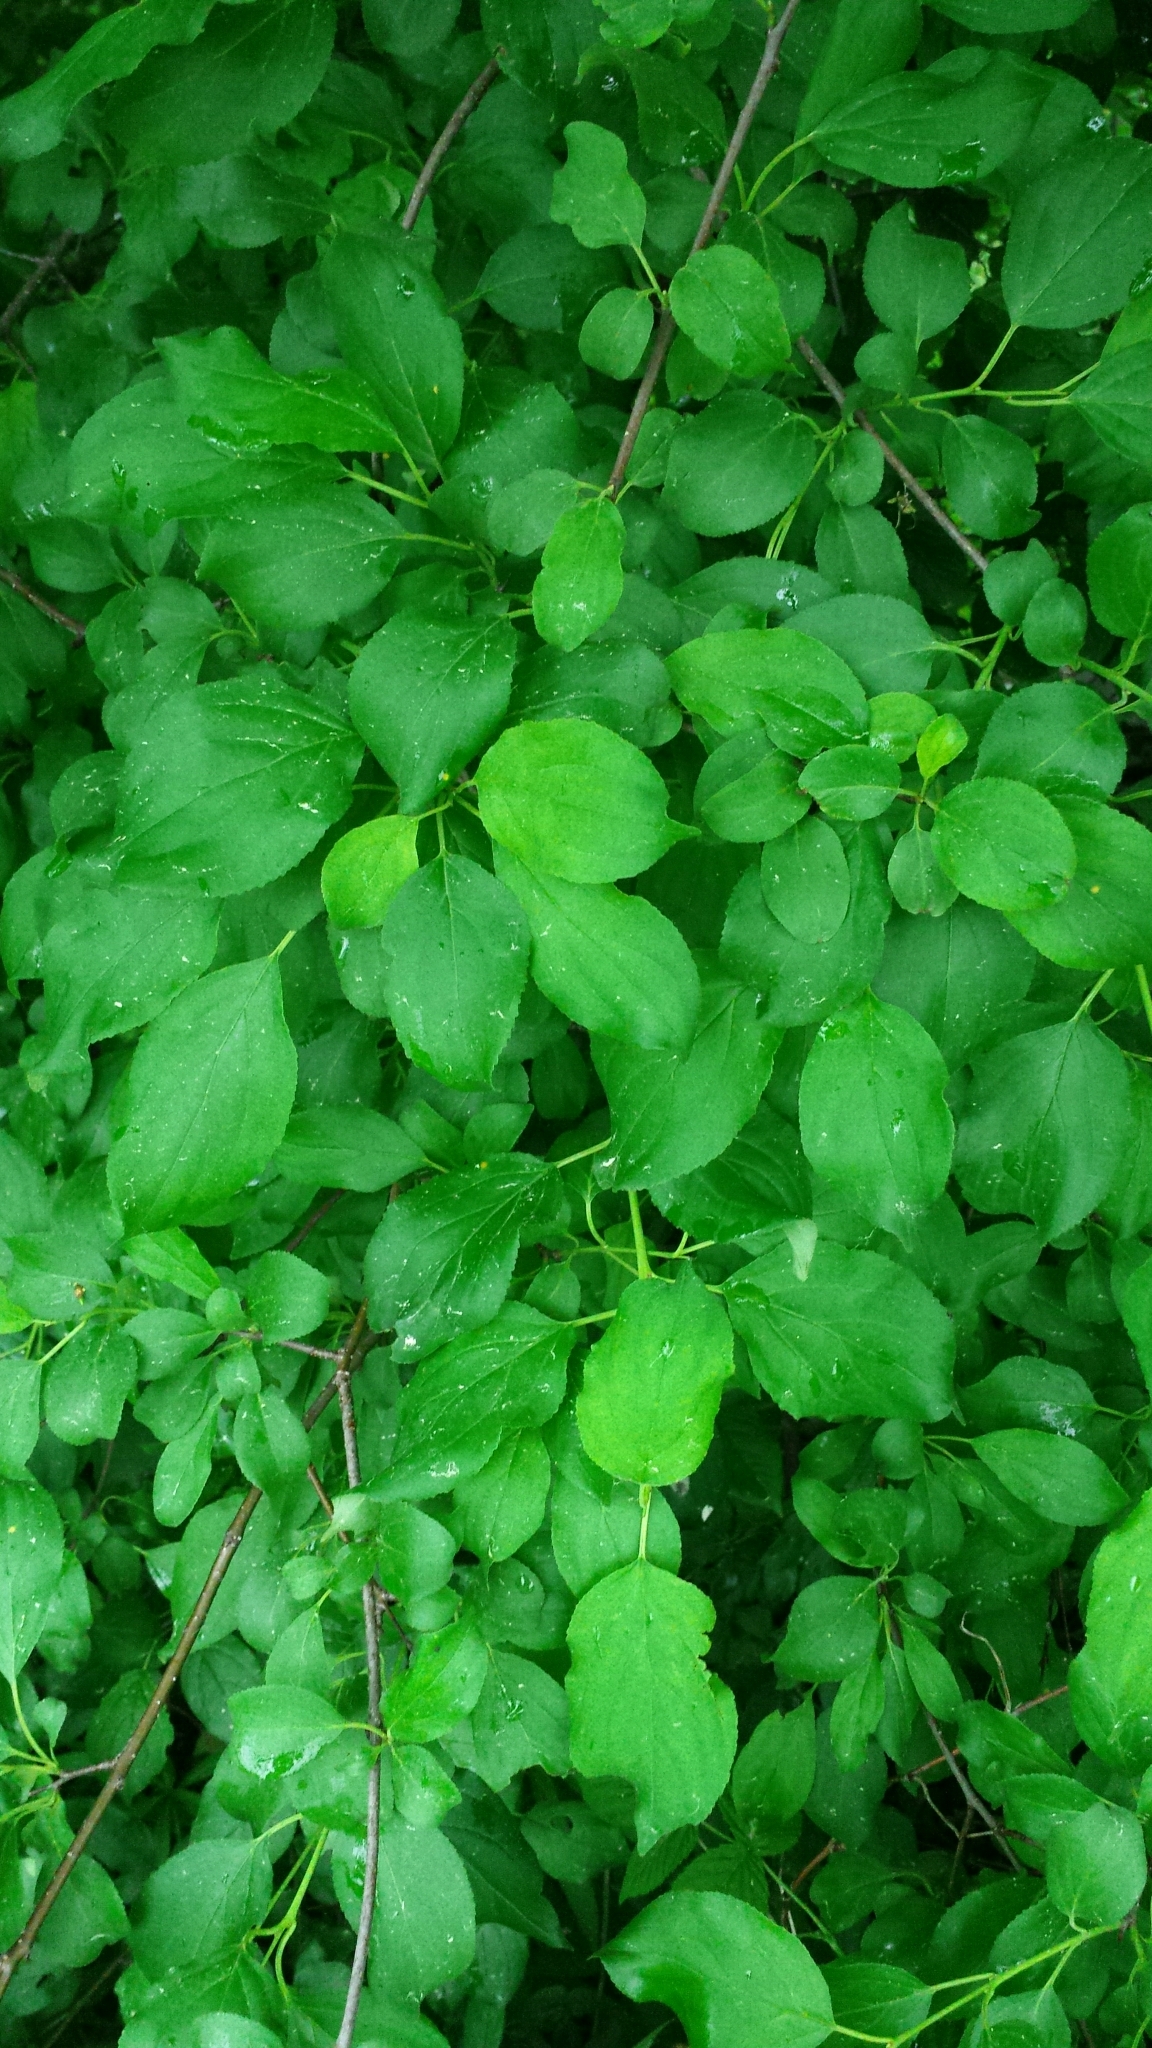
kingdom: Plantae
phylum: Tracheophyta
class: Magnoliopsida
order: Rosales
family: Rhamnaceae
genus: Rhamnus
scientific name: Rhamnus cathartica
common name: Common buckthorn
